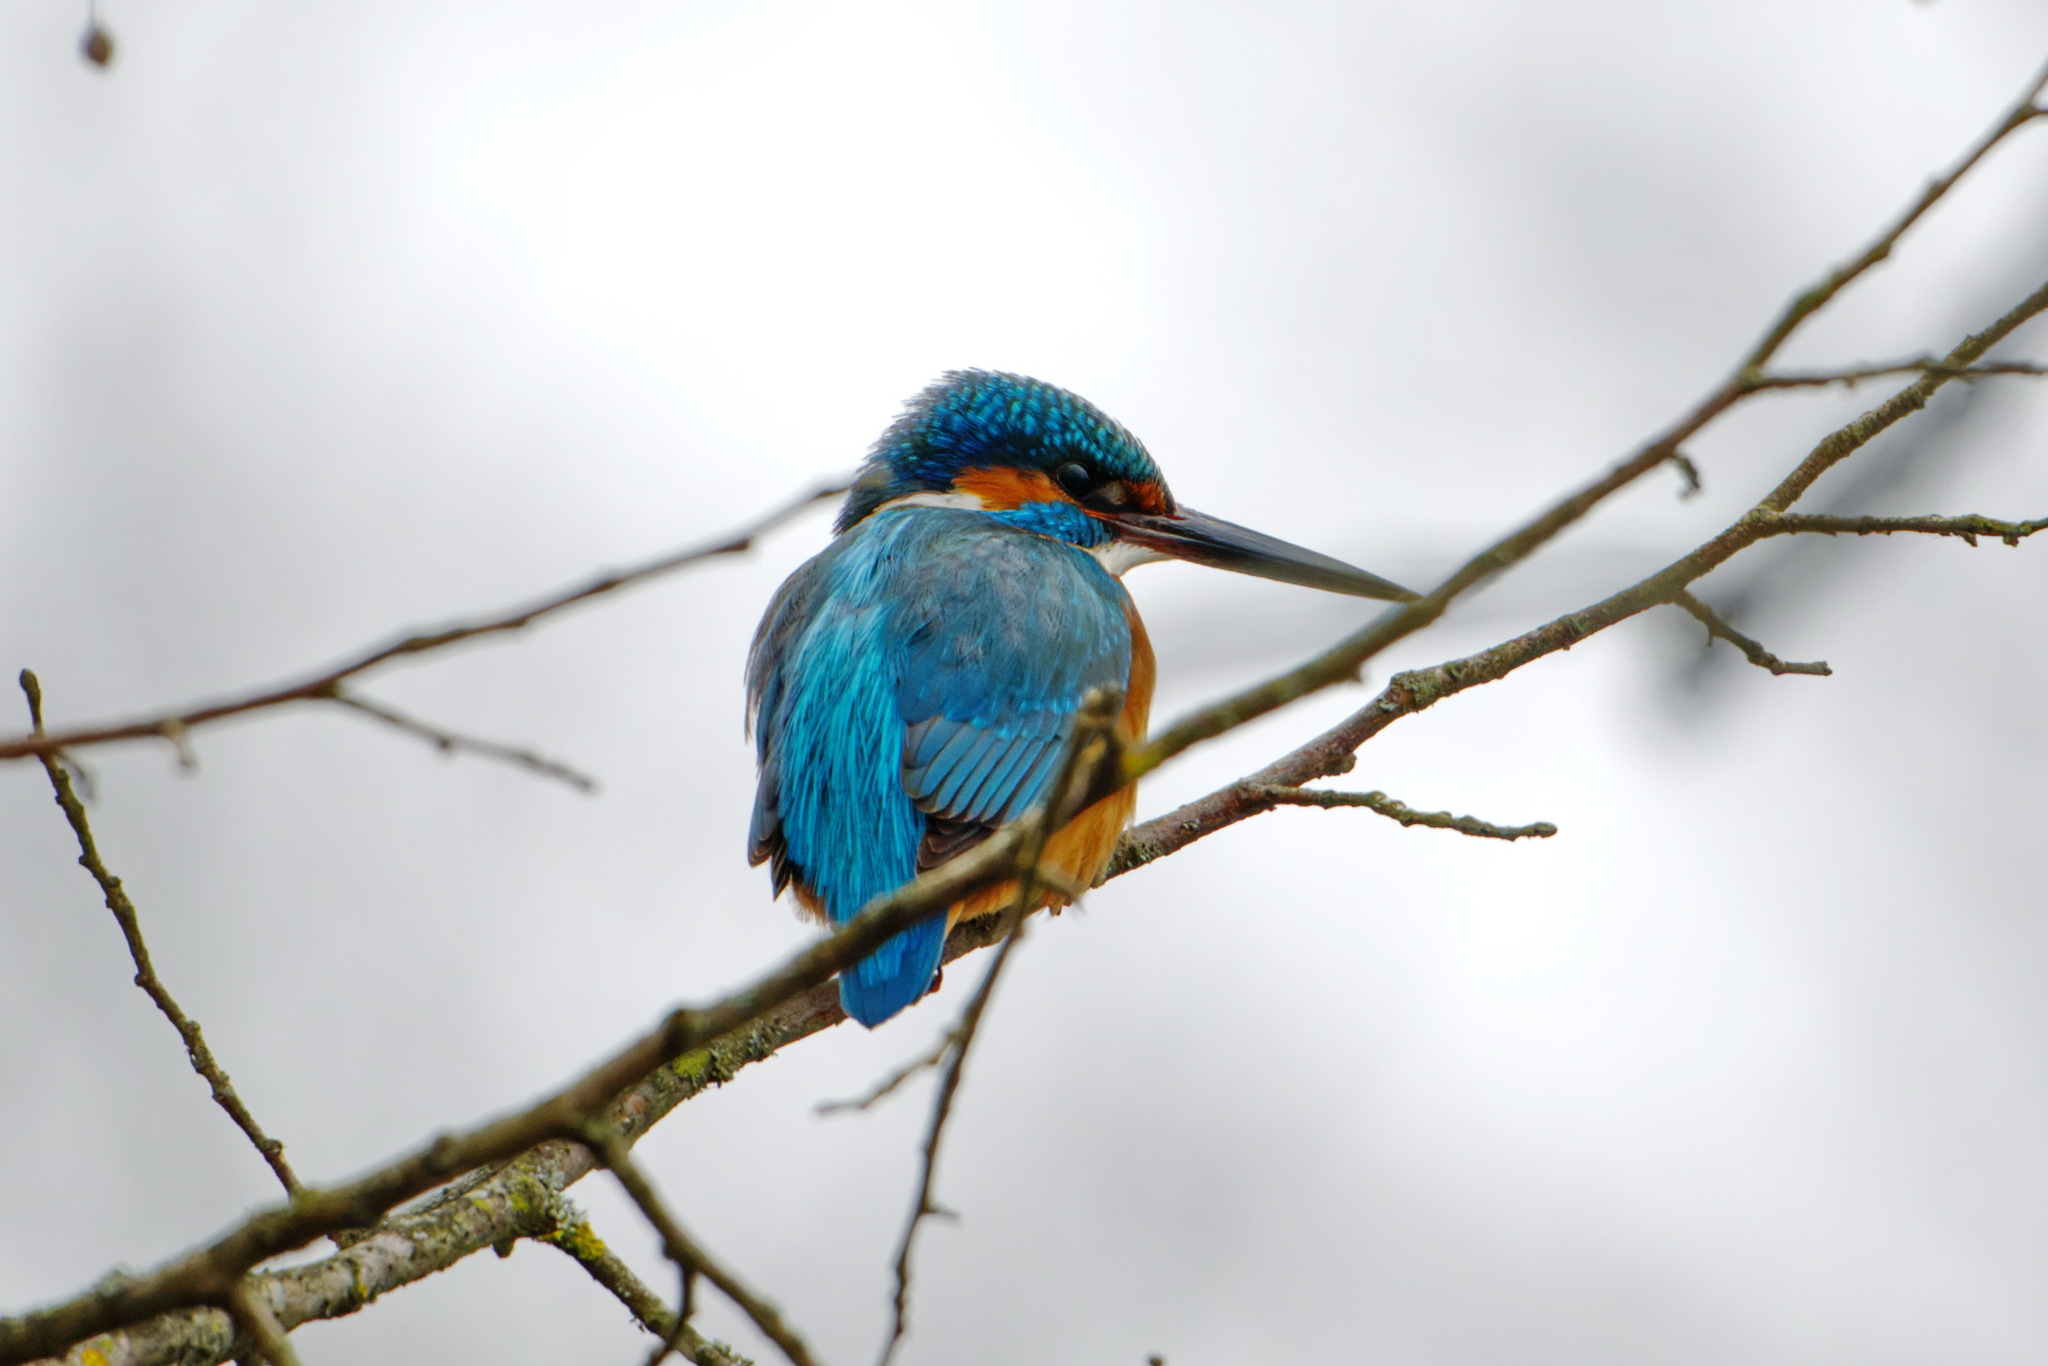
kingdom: Animalia
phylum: Chordata
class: Aves
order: Coraciiformes
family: Alcedinidae
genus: Alcedo
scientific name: Alcedo atthis
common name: Common kingfisher
